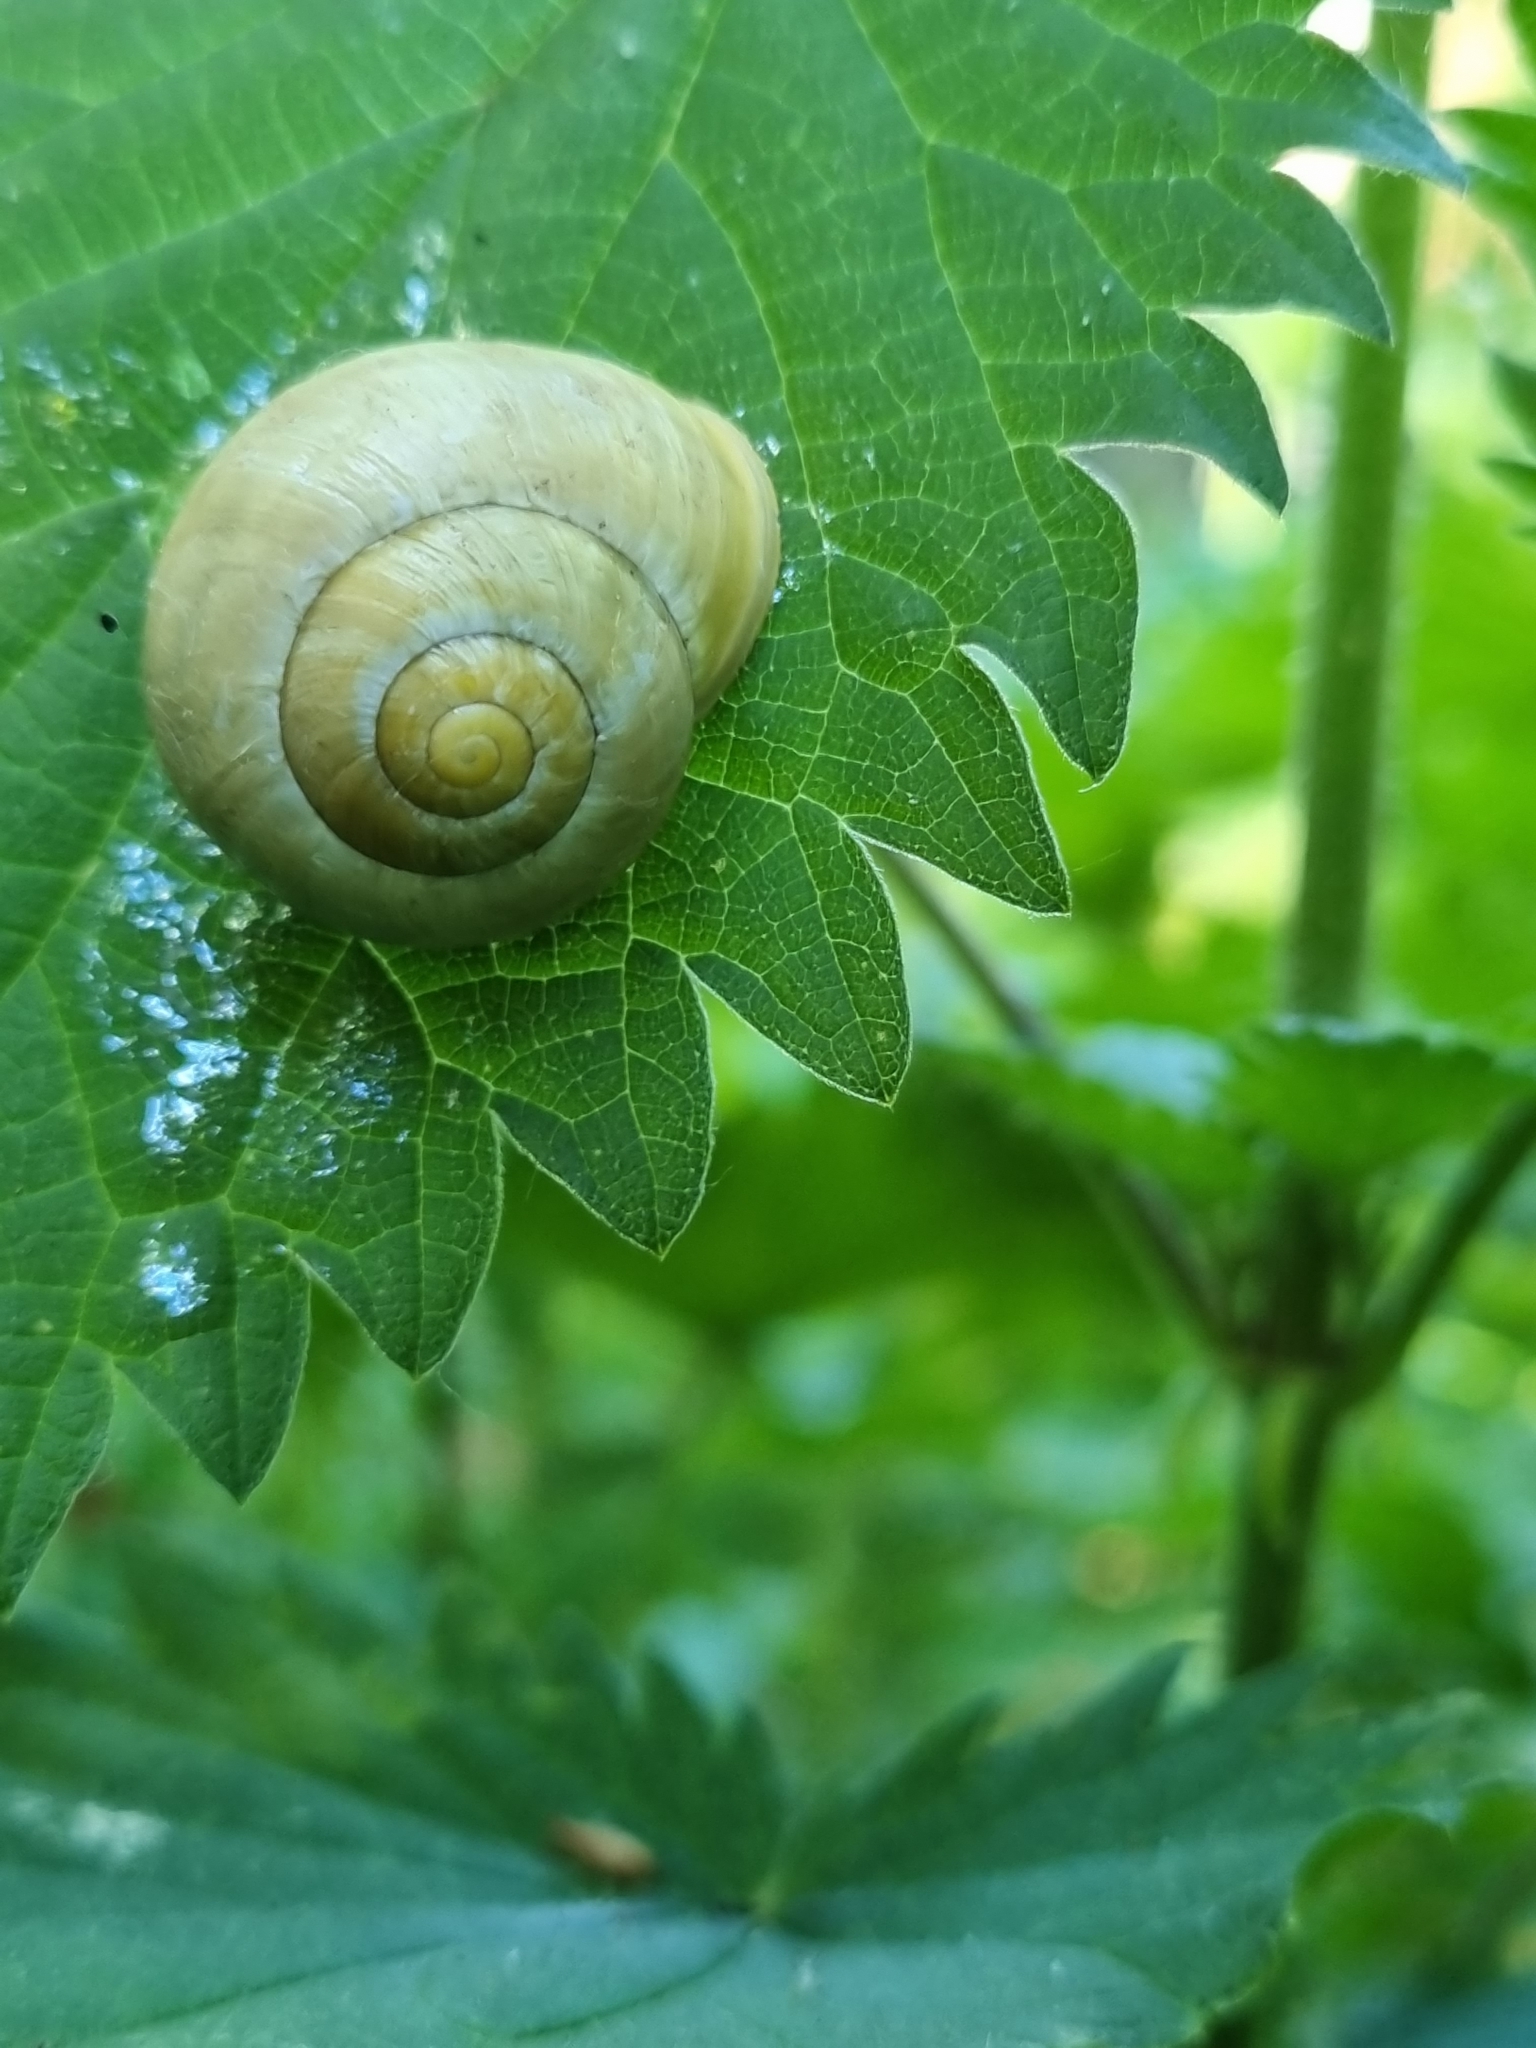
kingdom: Animalia
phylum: Mollusca
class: Gastropoda
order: Stylommatophora
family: Helicidae
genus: Cepaea
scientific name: Cepaea hortensis
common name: White-lip gardensnail
